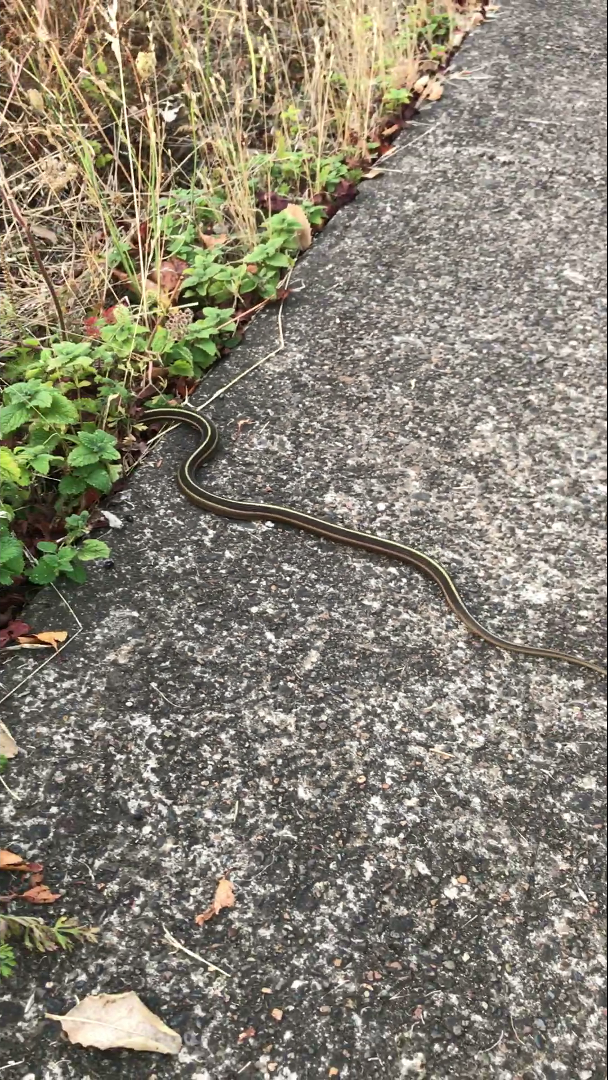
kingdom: Animalia
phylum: Chordata
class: Squamata
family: Colubridae
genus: Thamnophis
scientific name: Thamnophis ordinoides
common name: Northwestern garter snake
